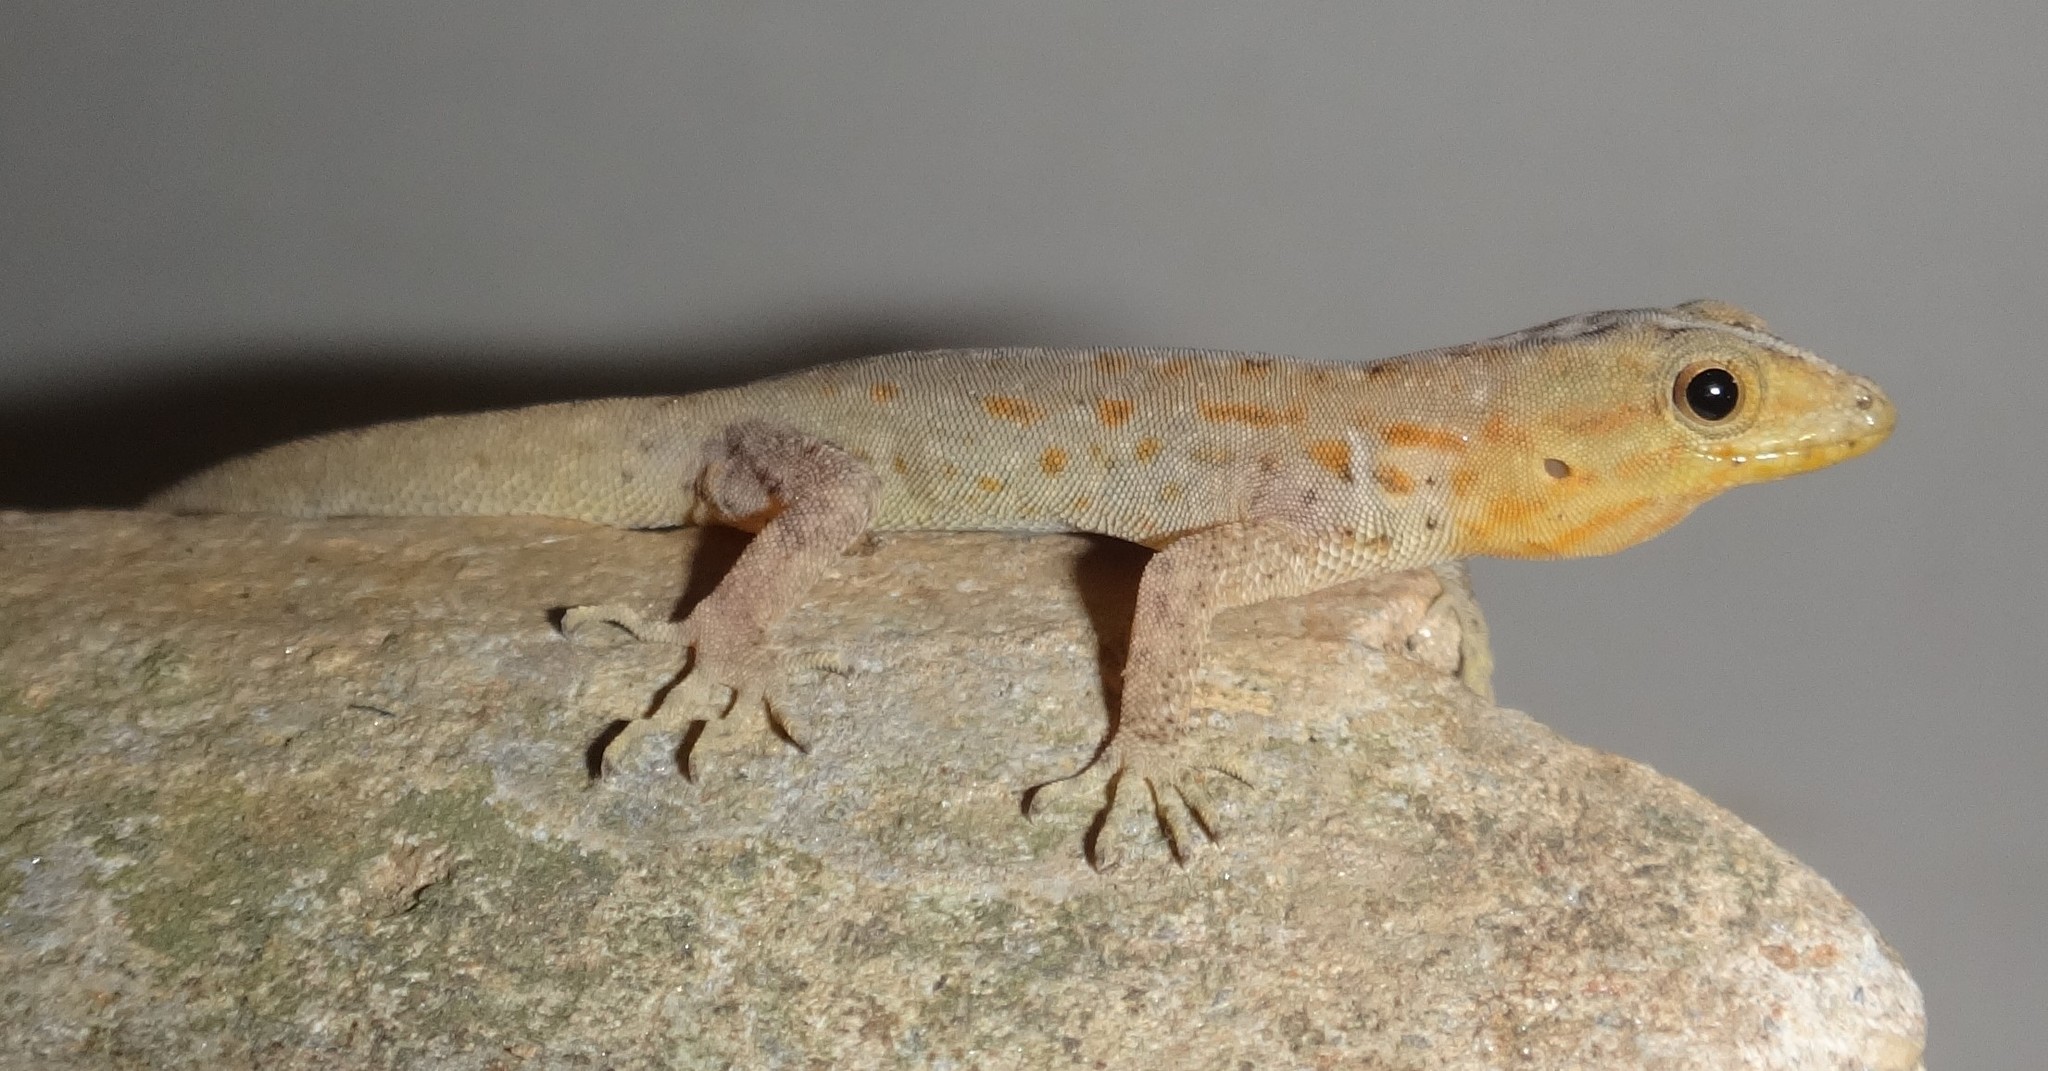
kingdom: Animalia
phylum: Chordata
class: Squamata
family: Sphaerodactylidae
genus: Gonatodes
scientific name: Gonatodes vittatus
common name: Wiegmann's striped gecko
